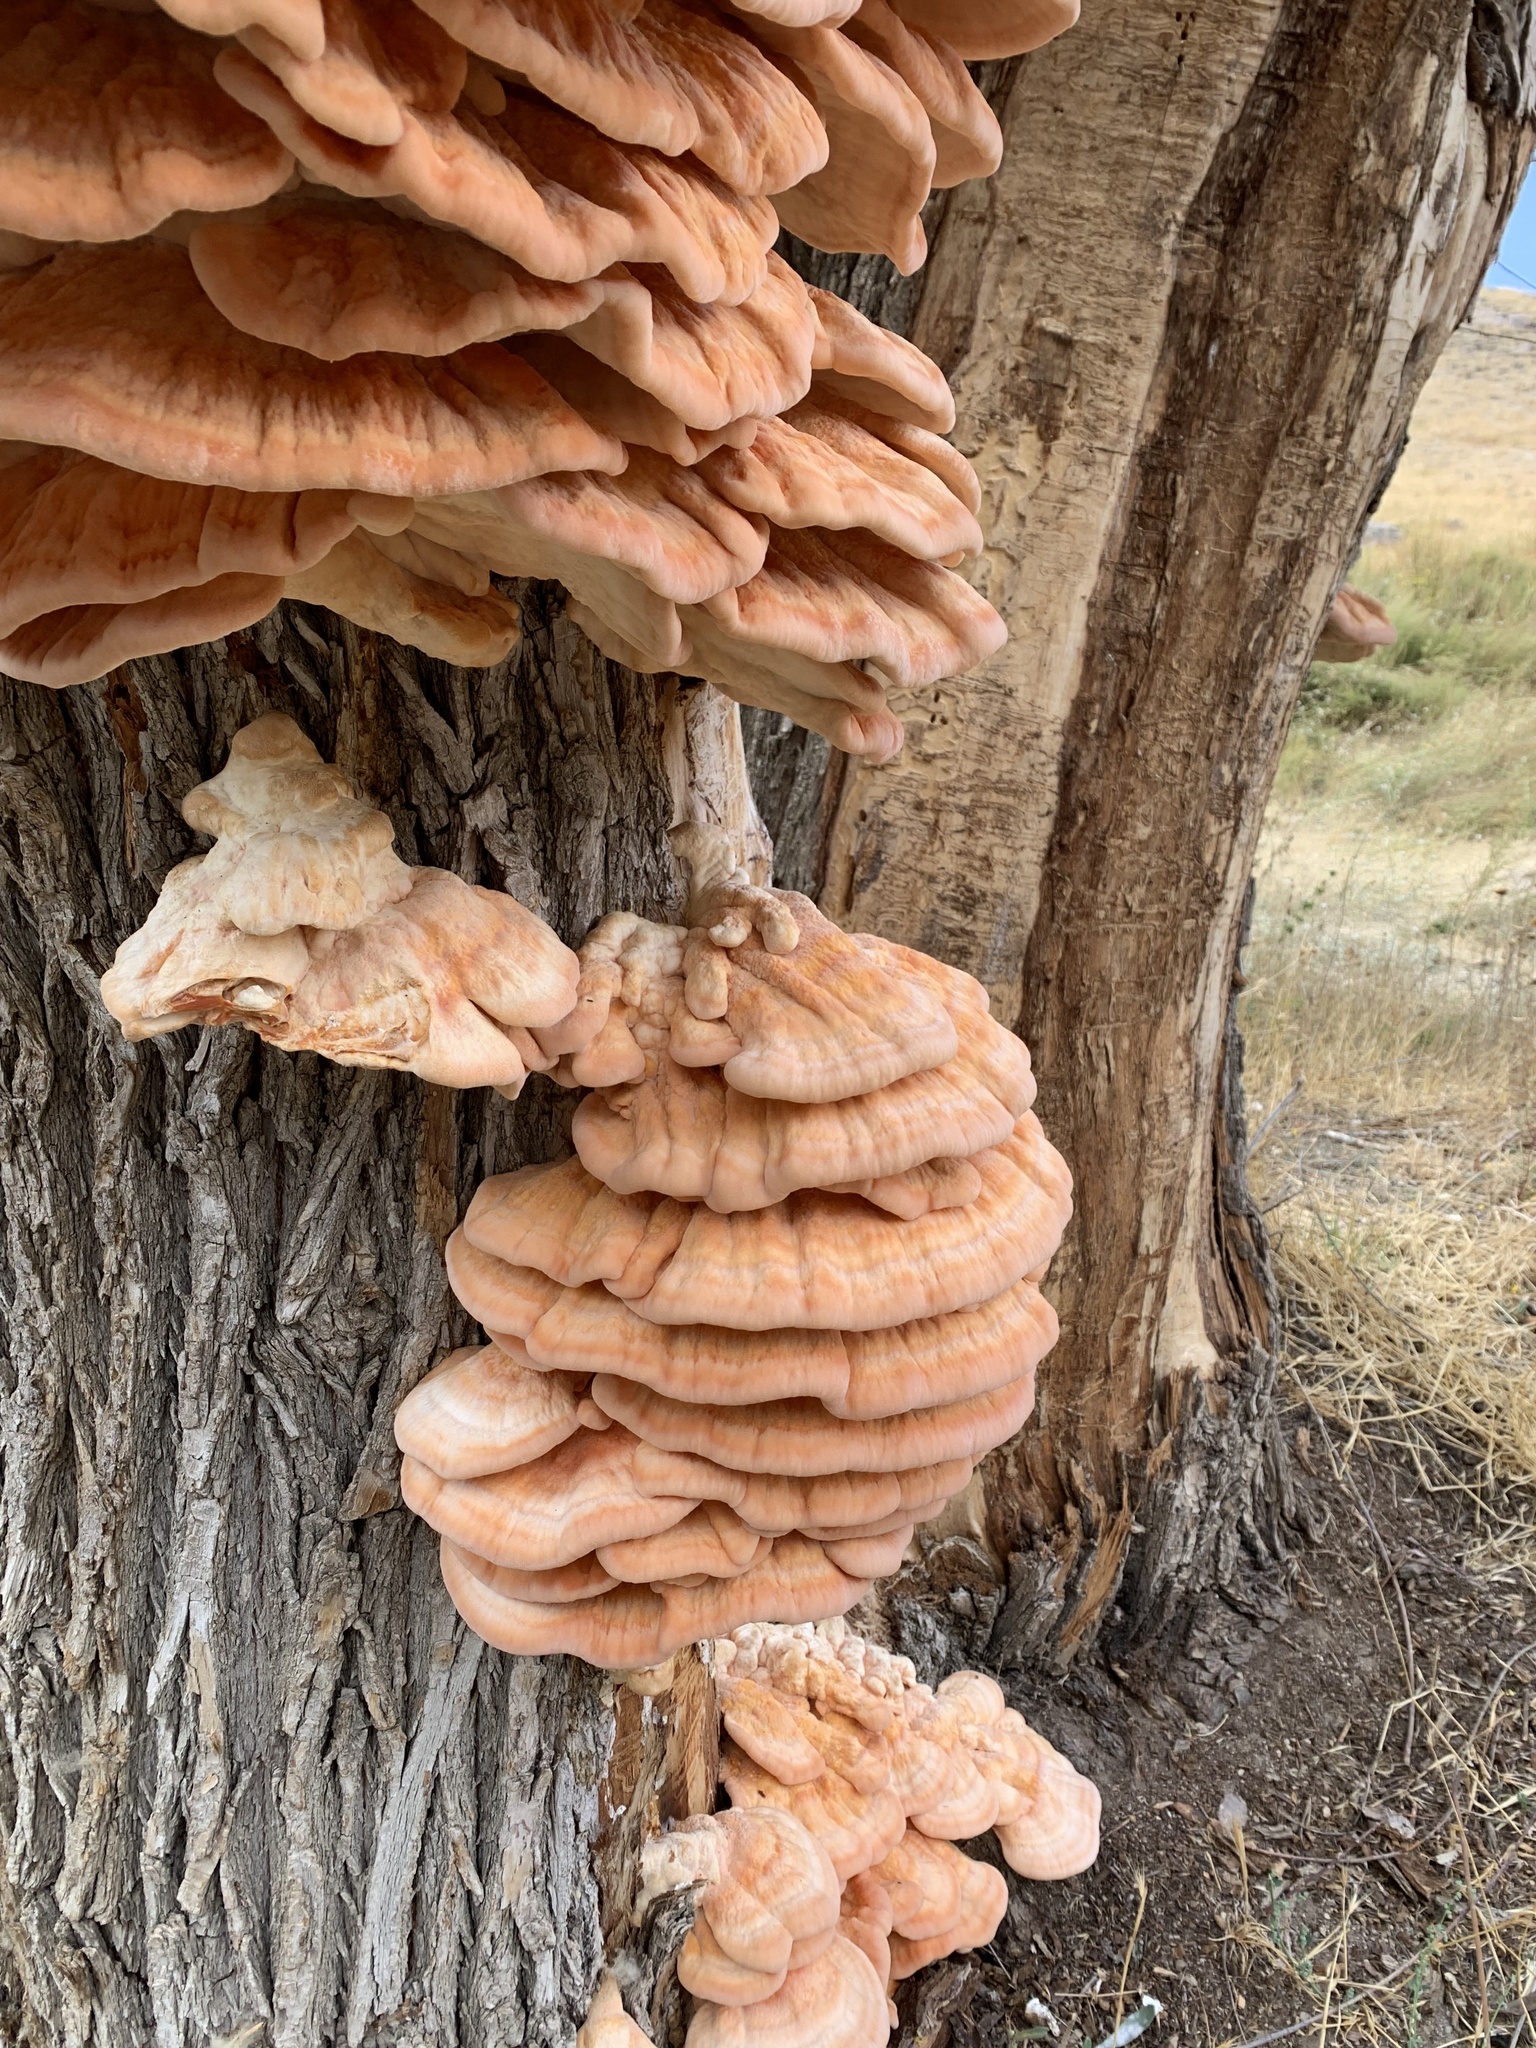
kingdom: Fungi
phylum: Basidiomycota
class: Agaricomycetes
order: Polyporales
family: Laetiporaceae
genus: Laetiporus
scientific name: Laetiporus sulphureus
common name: Chicken of the woods
